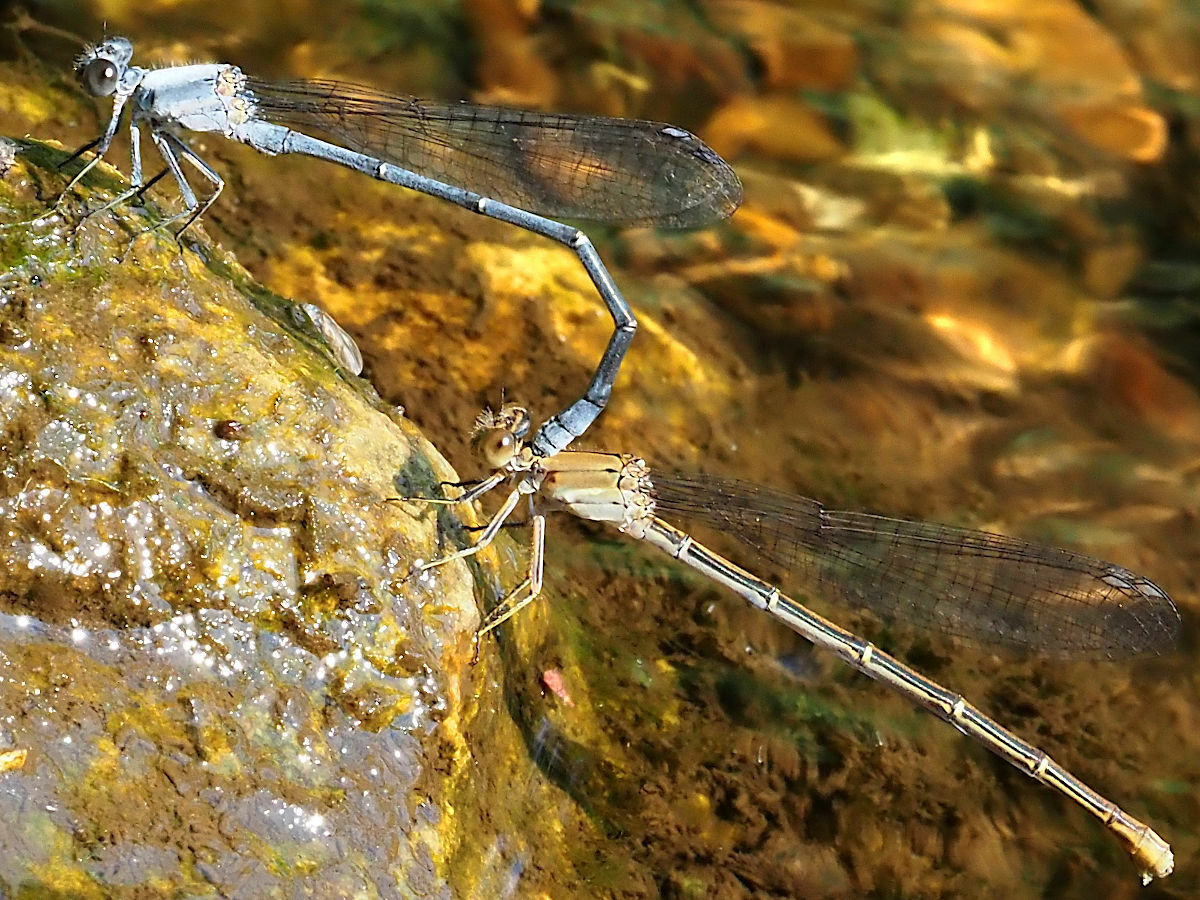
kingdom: Animalia
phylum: Arthropoda
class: Insecta
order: Odonata
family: Coenagrionidae
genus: Argia
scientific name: Argia moesta
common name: Powdered dancer
